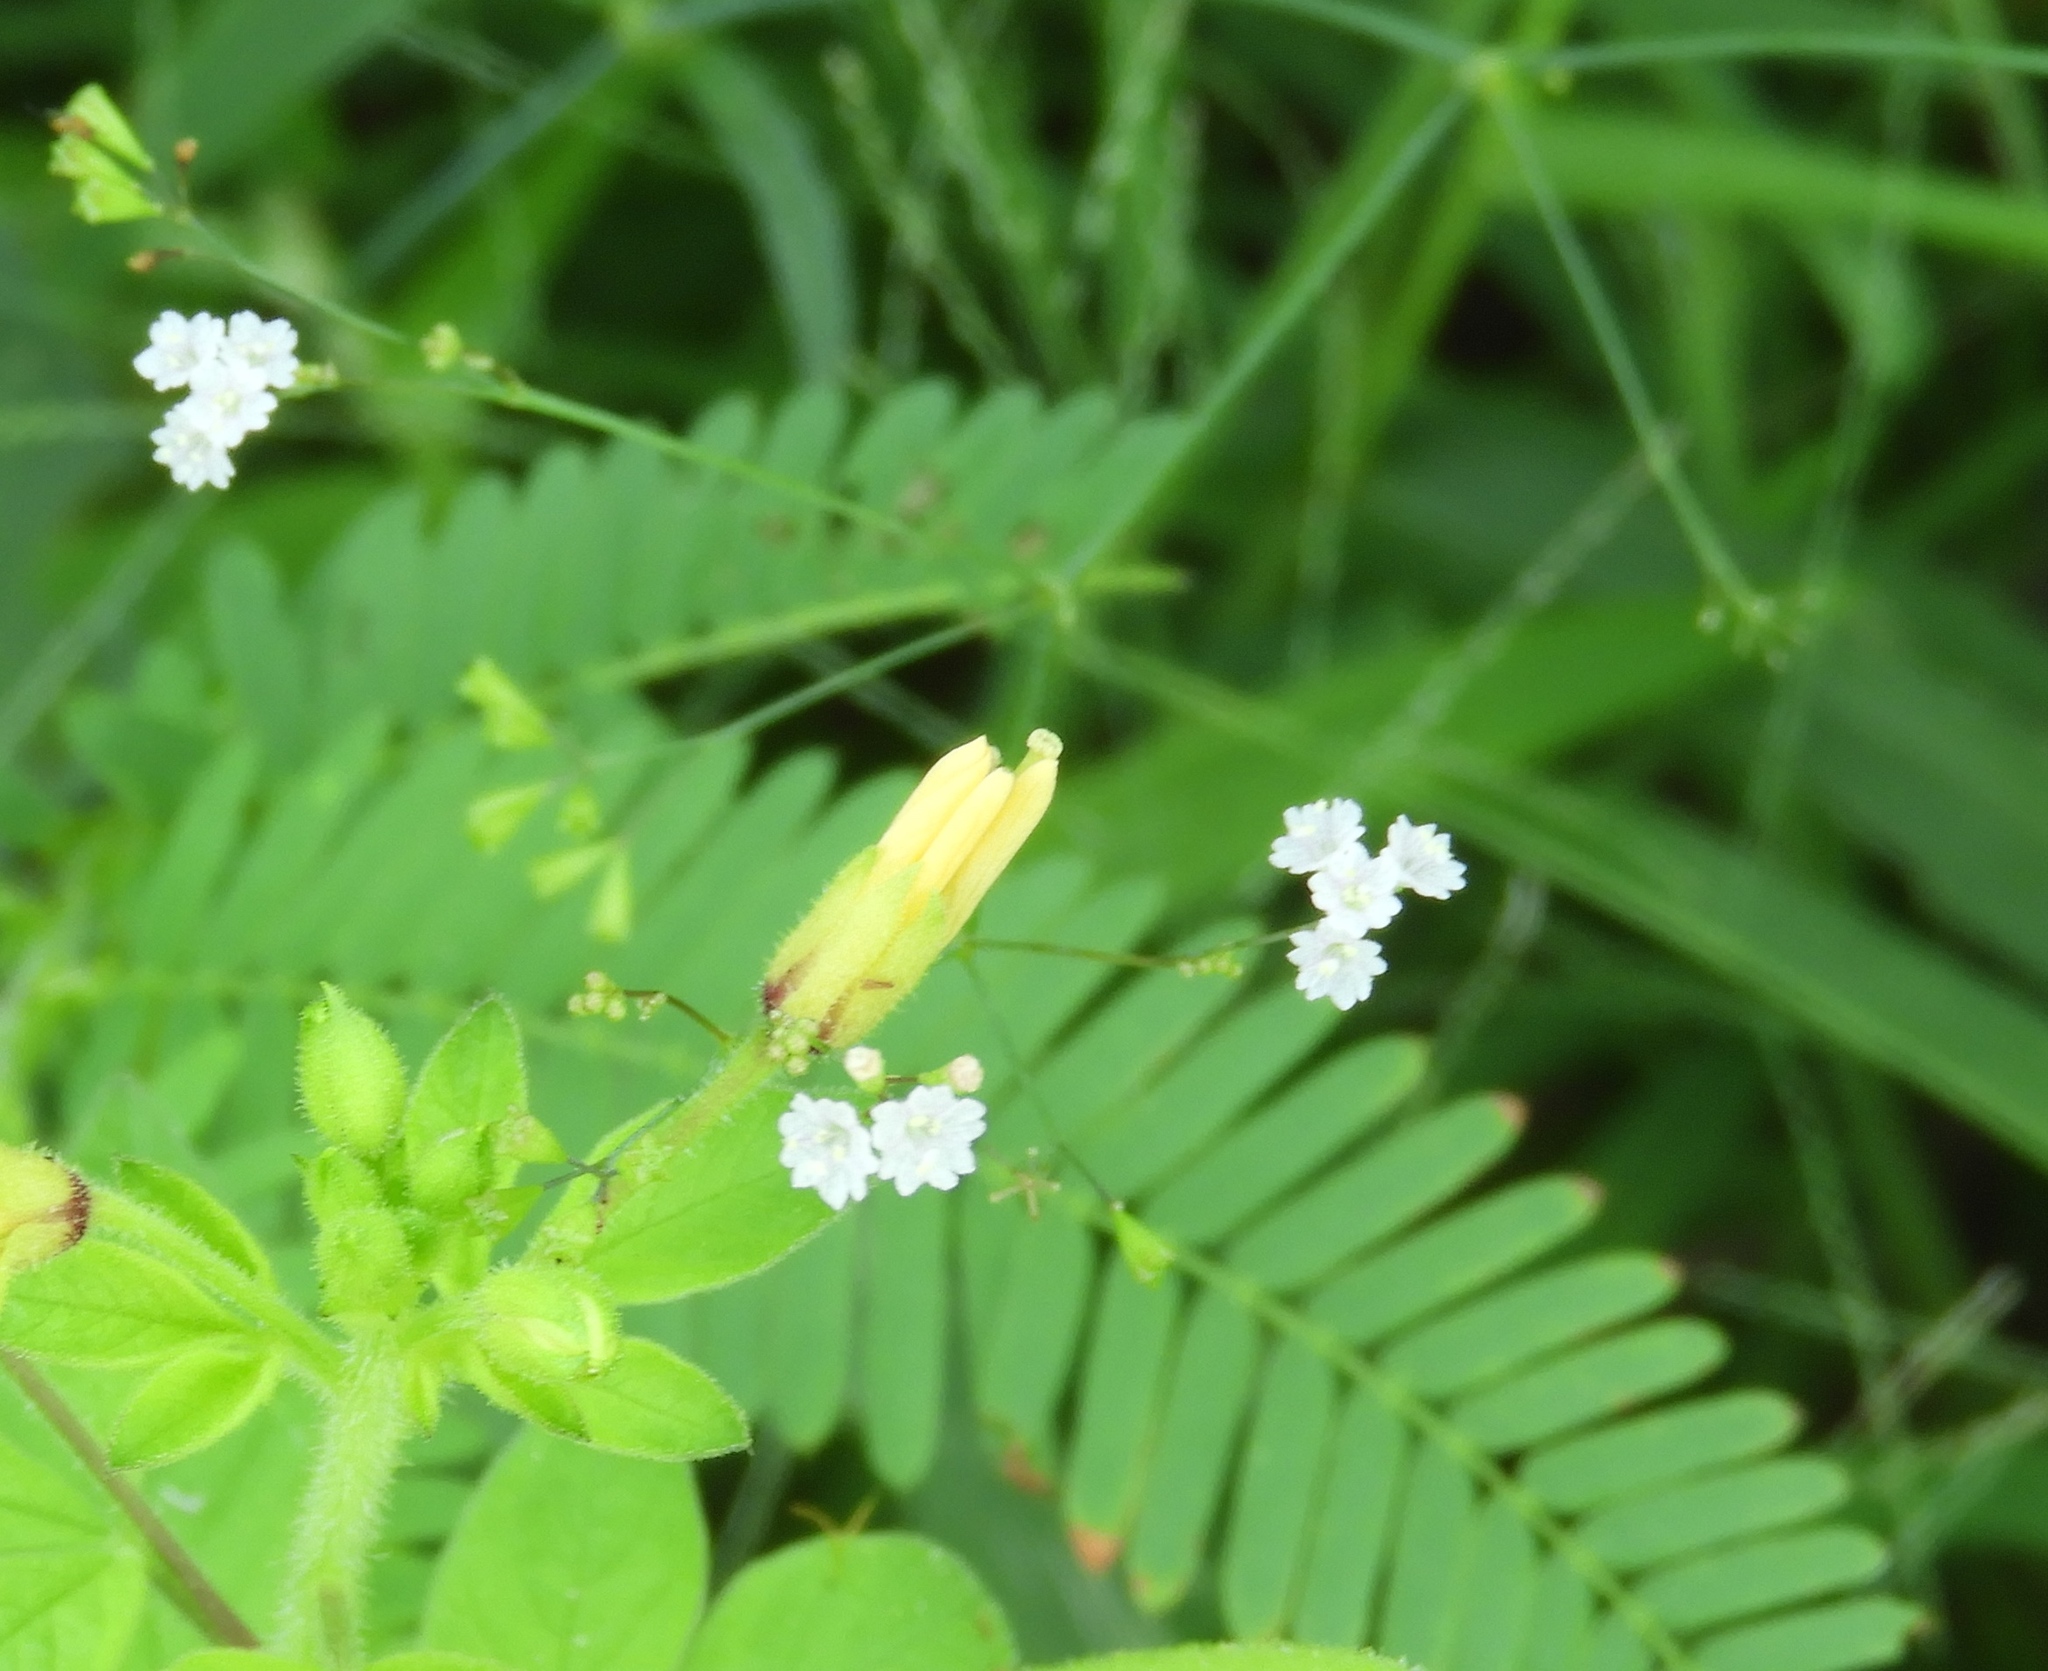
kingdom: Plantae
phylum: Tracheophyta
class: Magnoliopsida
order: Caryophyllales
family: Nyctaginaceae
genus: Boerhavia
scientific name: Boerhavia erecta
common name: Erect spiderling
